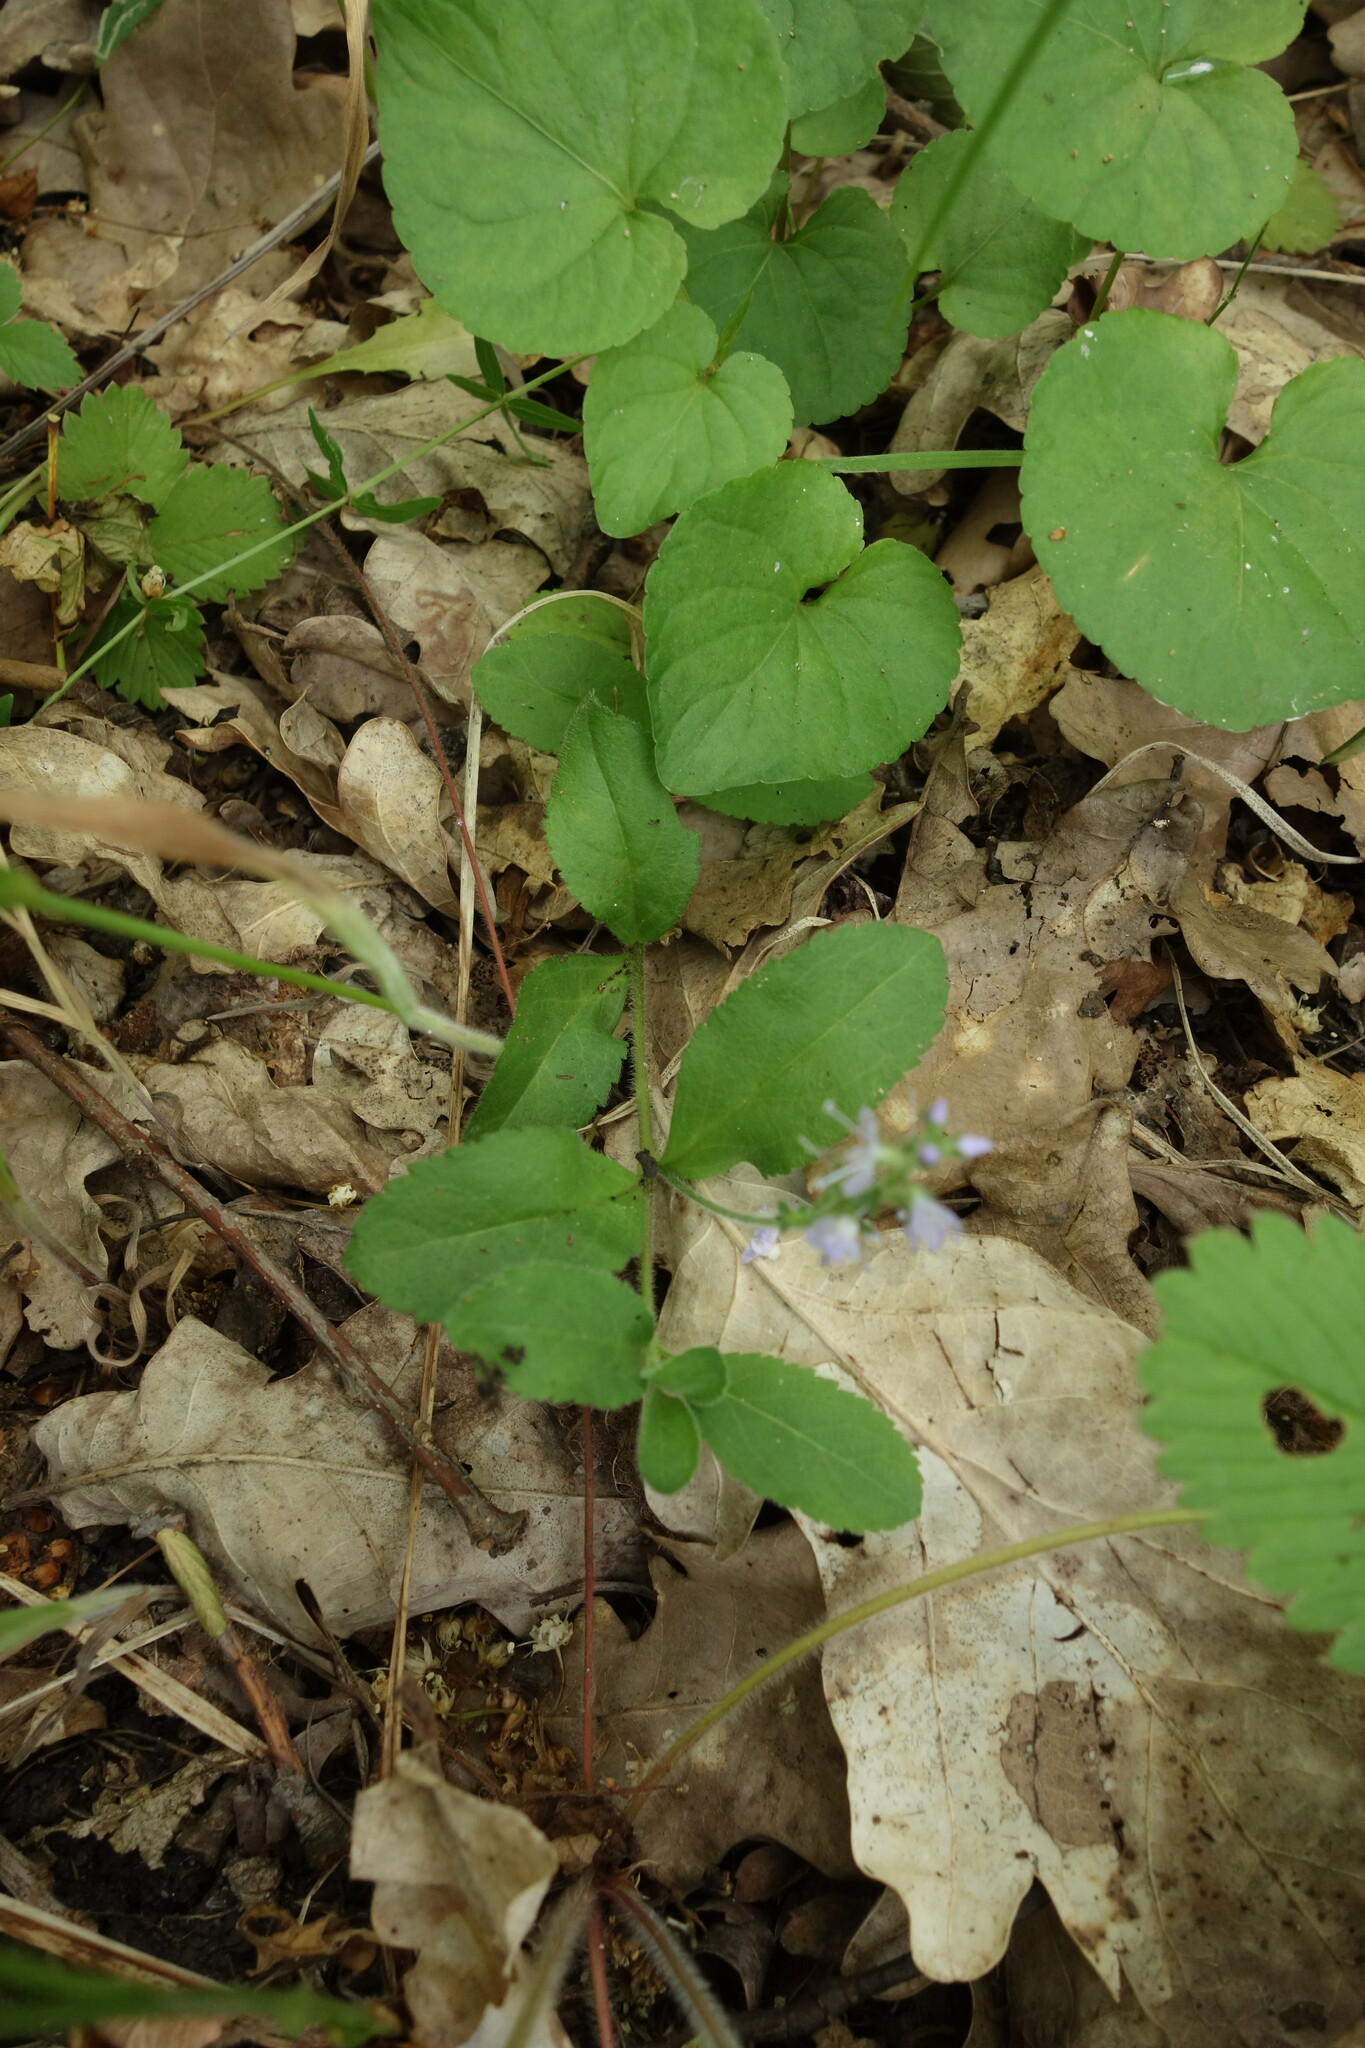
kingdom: Plantae
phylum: Tracheophyta
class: Magnoliopsida
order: Lamiales
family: Plantaginaceae
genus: Veronica
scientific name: Veronica officinalis
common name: Common speedwell
